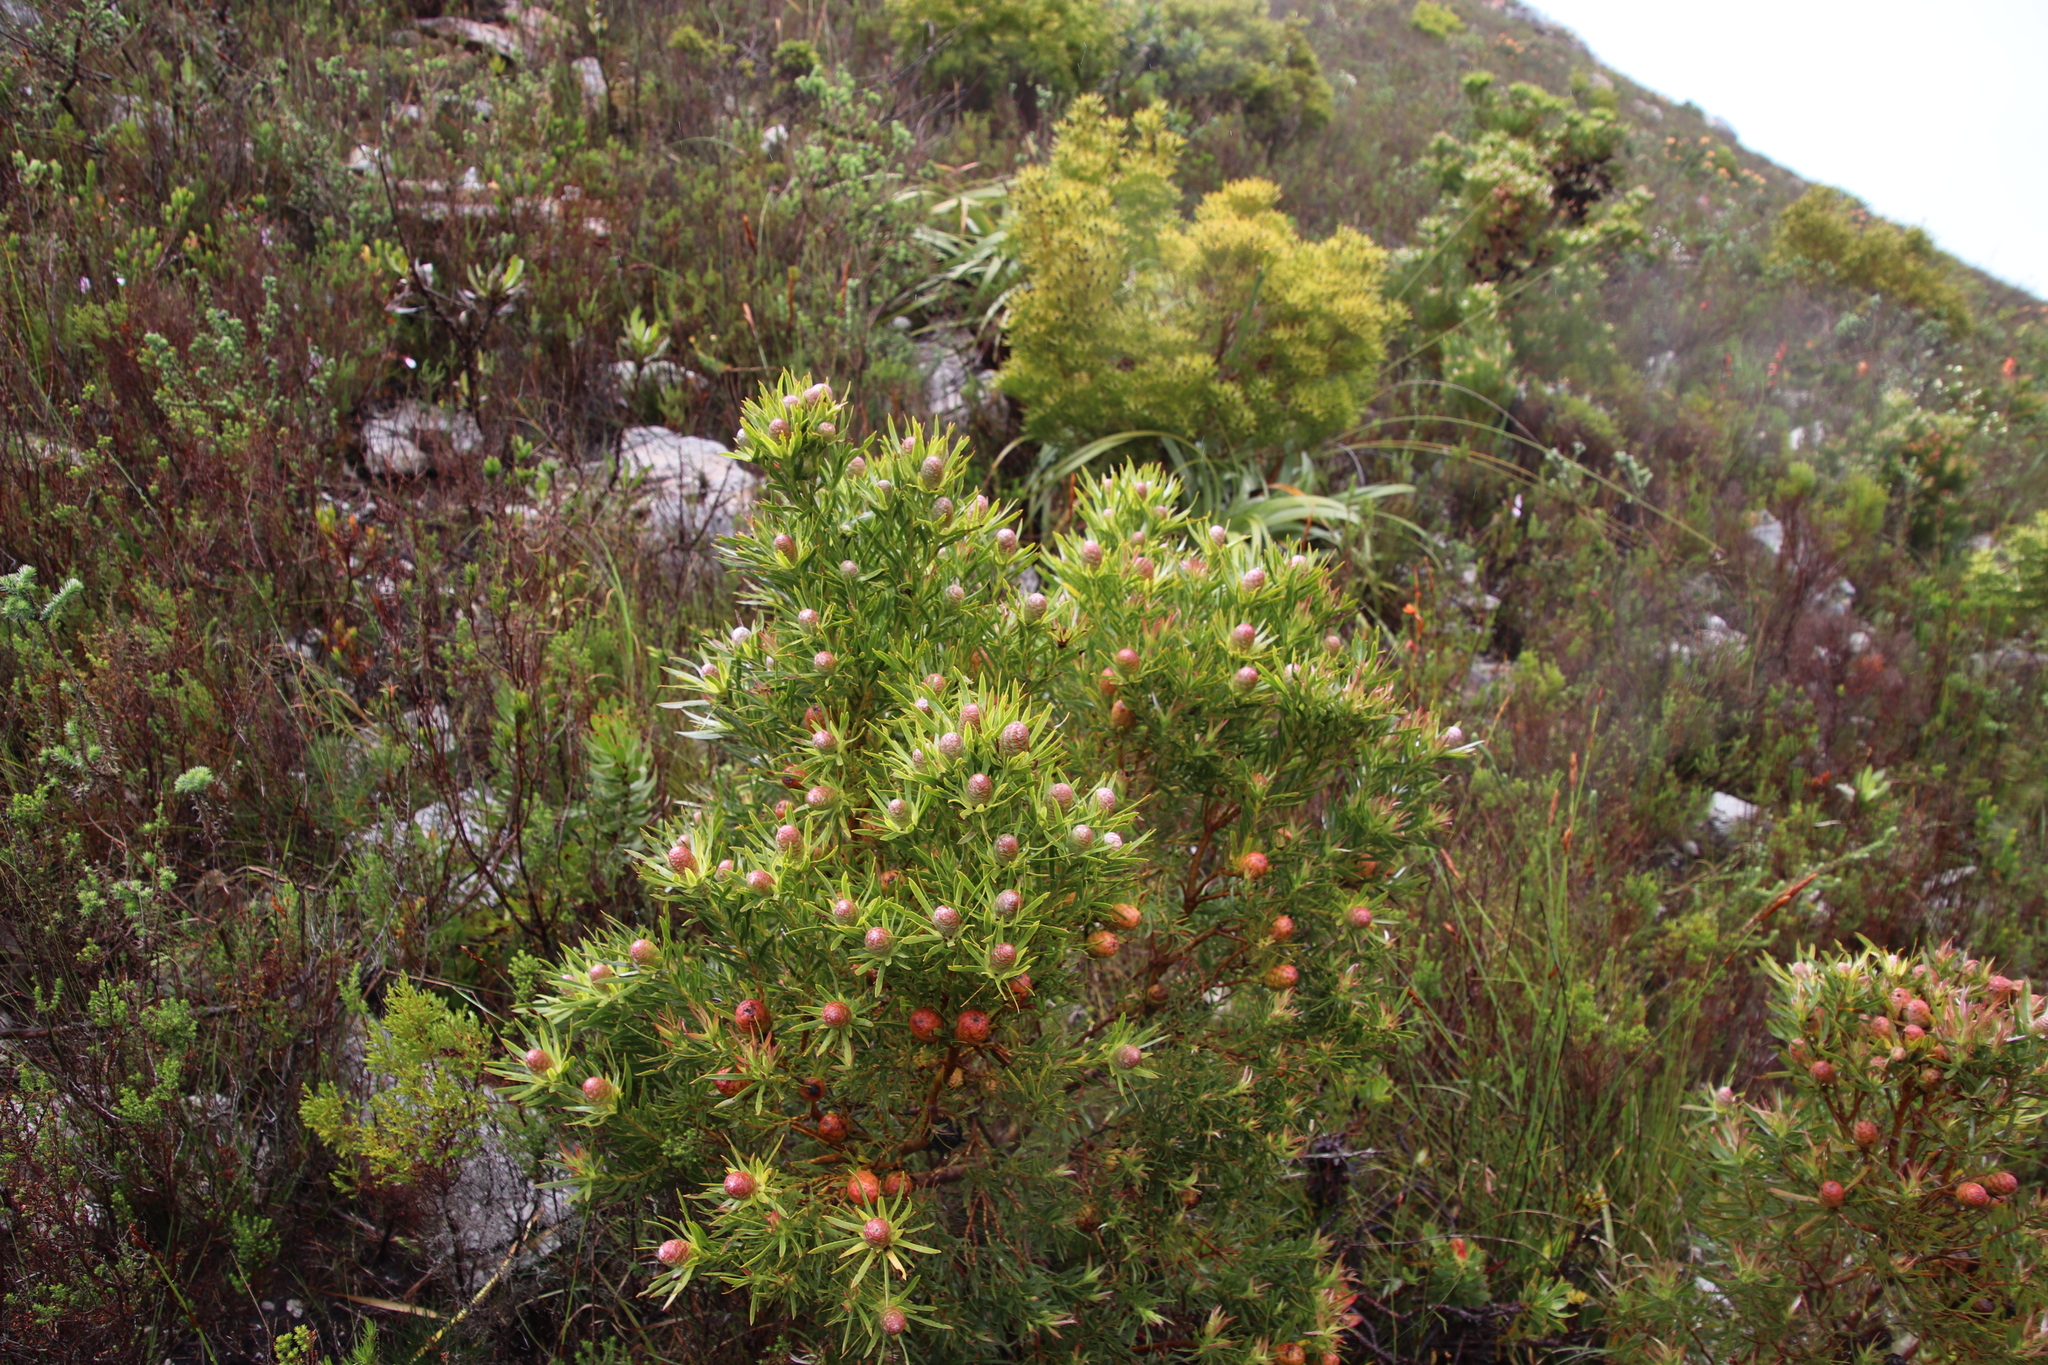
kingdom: Plantae
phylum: Tracheophyta
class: Magnoliopsida
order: Proteales
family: Proteaceae
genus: Leucadendron
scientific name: Leucadendron xanthoconus
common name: Sickle-leaf conebush
